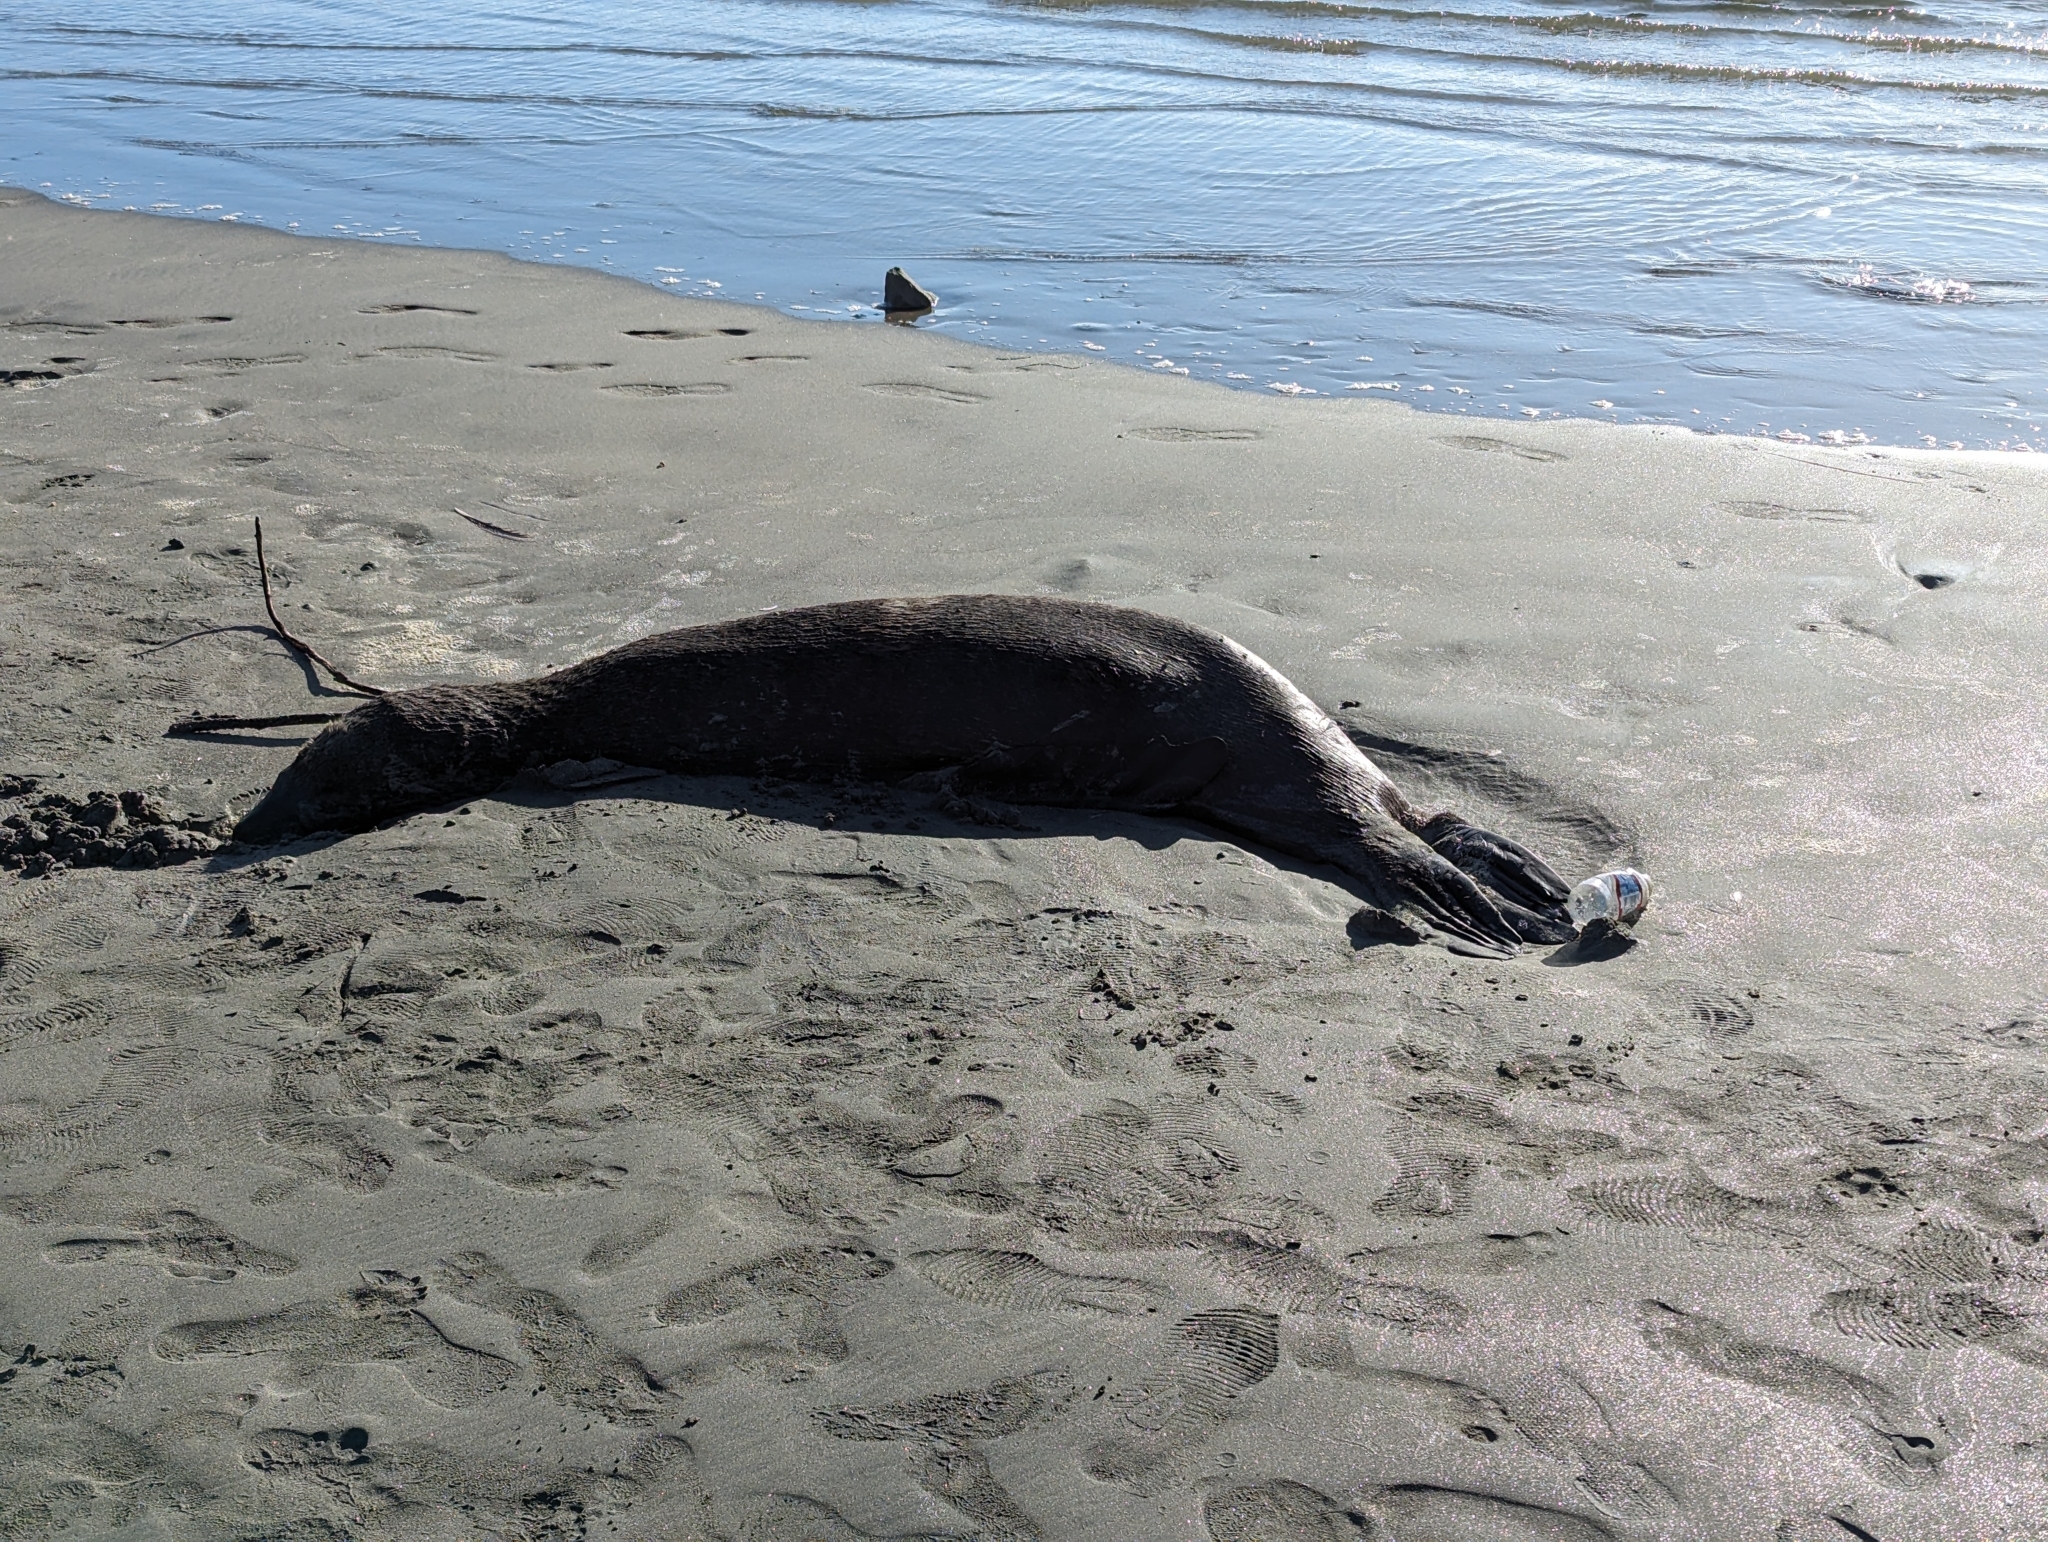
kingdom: Animalia
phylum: Chordata
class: Mammalia
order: Carnivora
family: Phocidae
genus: Mirounga
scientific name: Mirounga angustirostris
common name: Northern elephant seal
